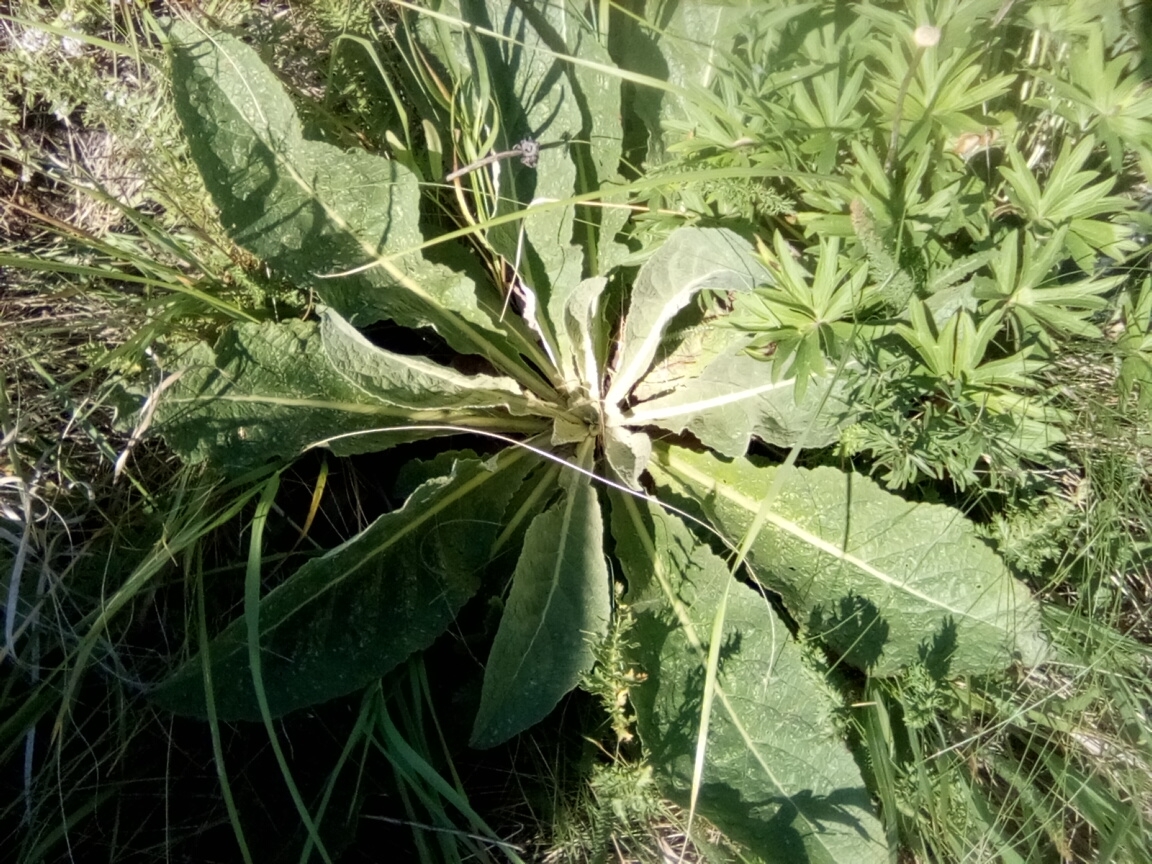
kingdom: Plantae
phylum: Tracheophyta
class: Magnoliopsida
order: Lamiales
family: Scrophulariaceae
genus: Verbascum
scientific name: Verbascum lychnitis
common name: White mullein
